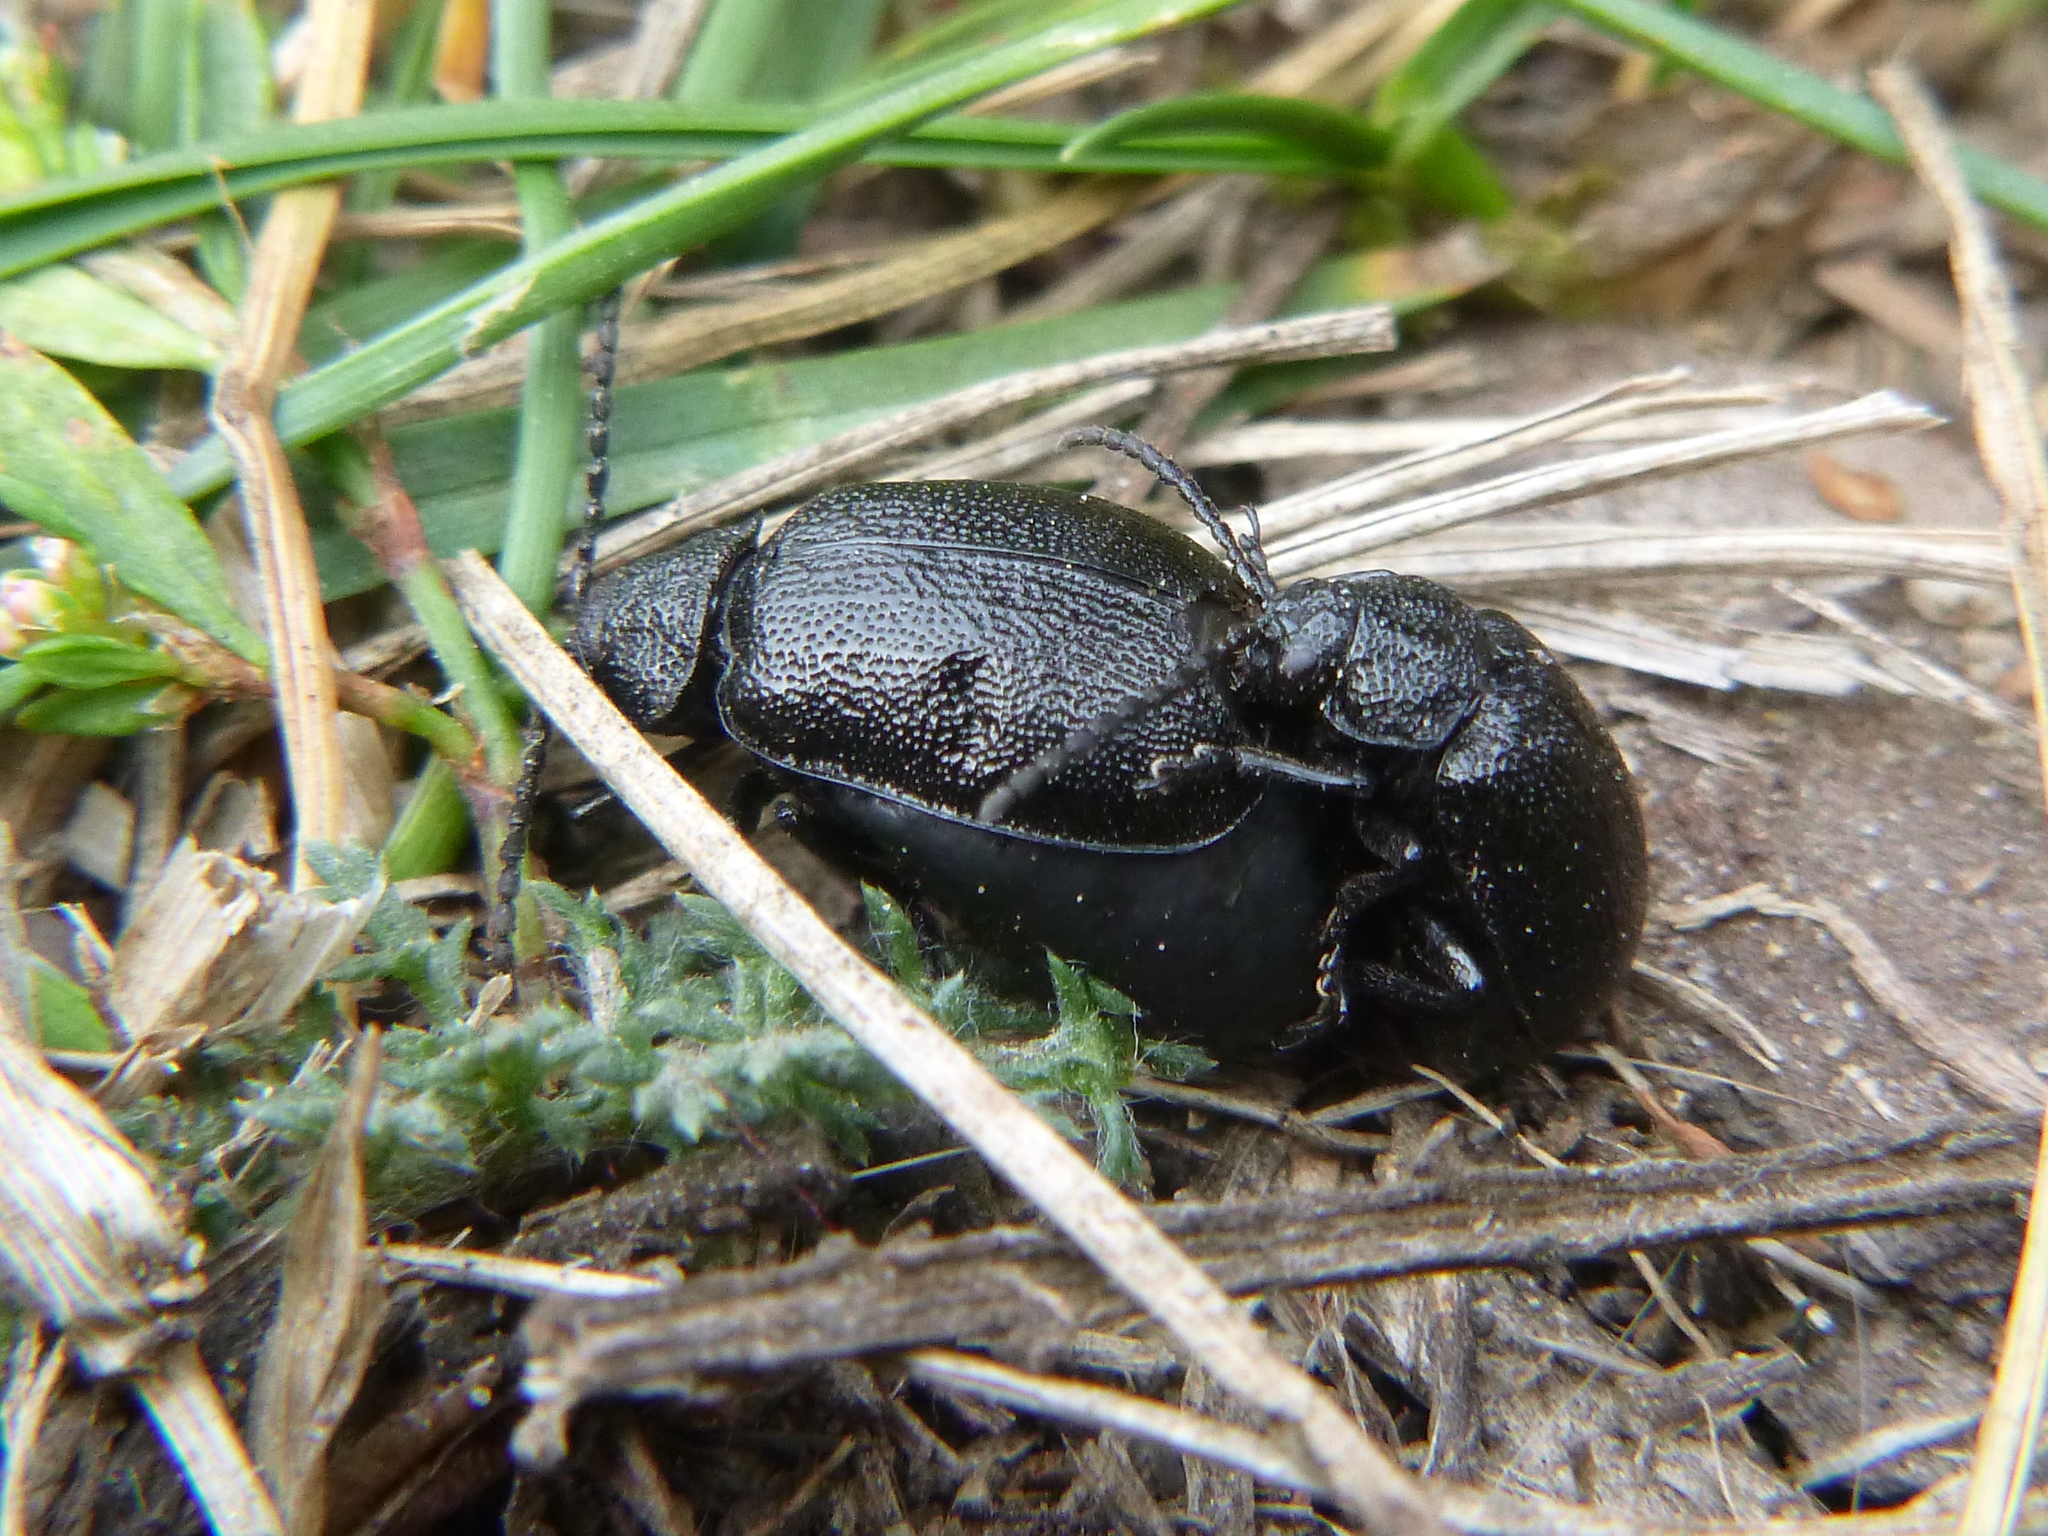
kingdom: Animalia
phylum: Arthropoda
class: Insecta
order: Coleoptera
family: Chrysomelidae
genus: Galeruca
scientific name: Galeruca tanaceti
